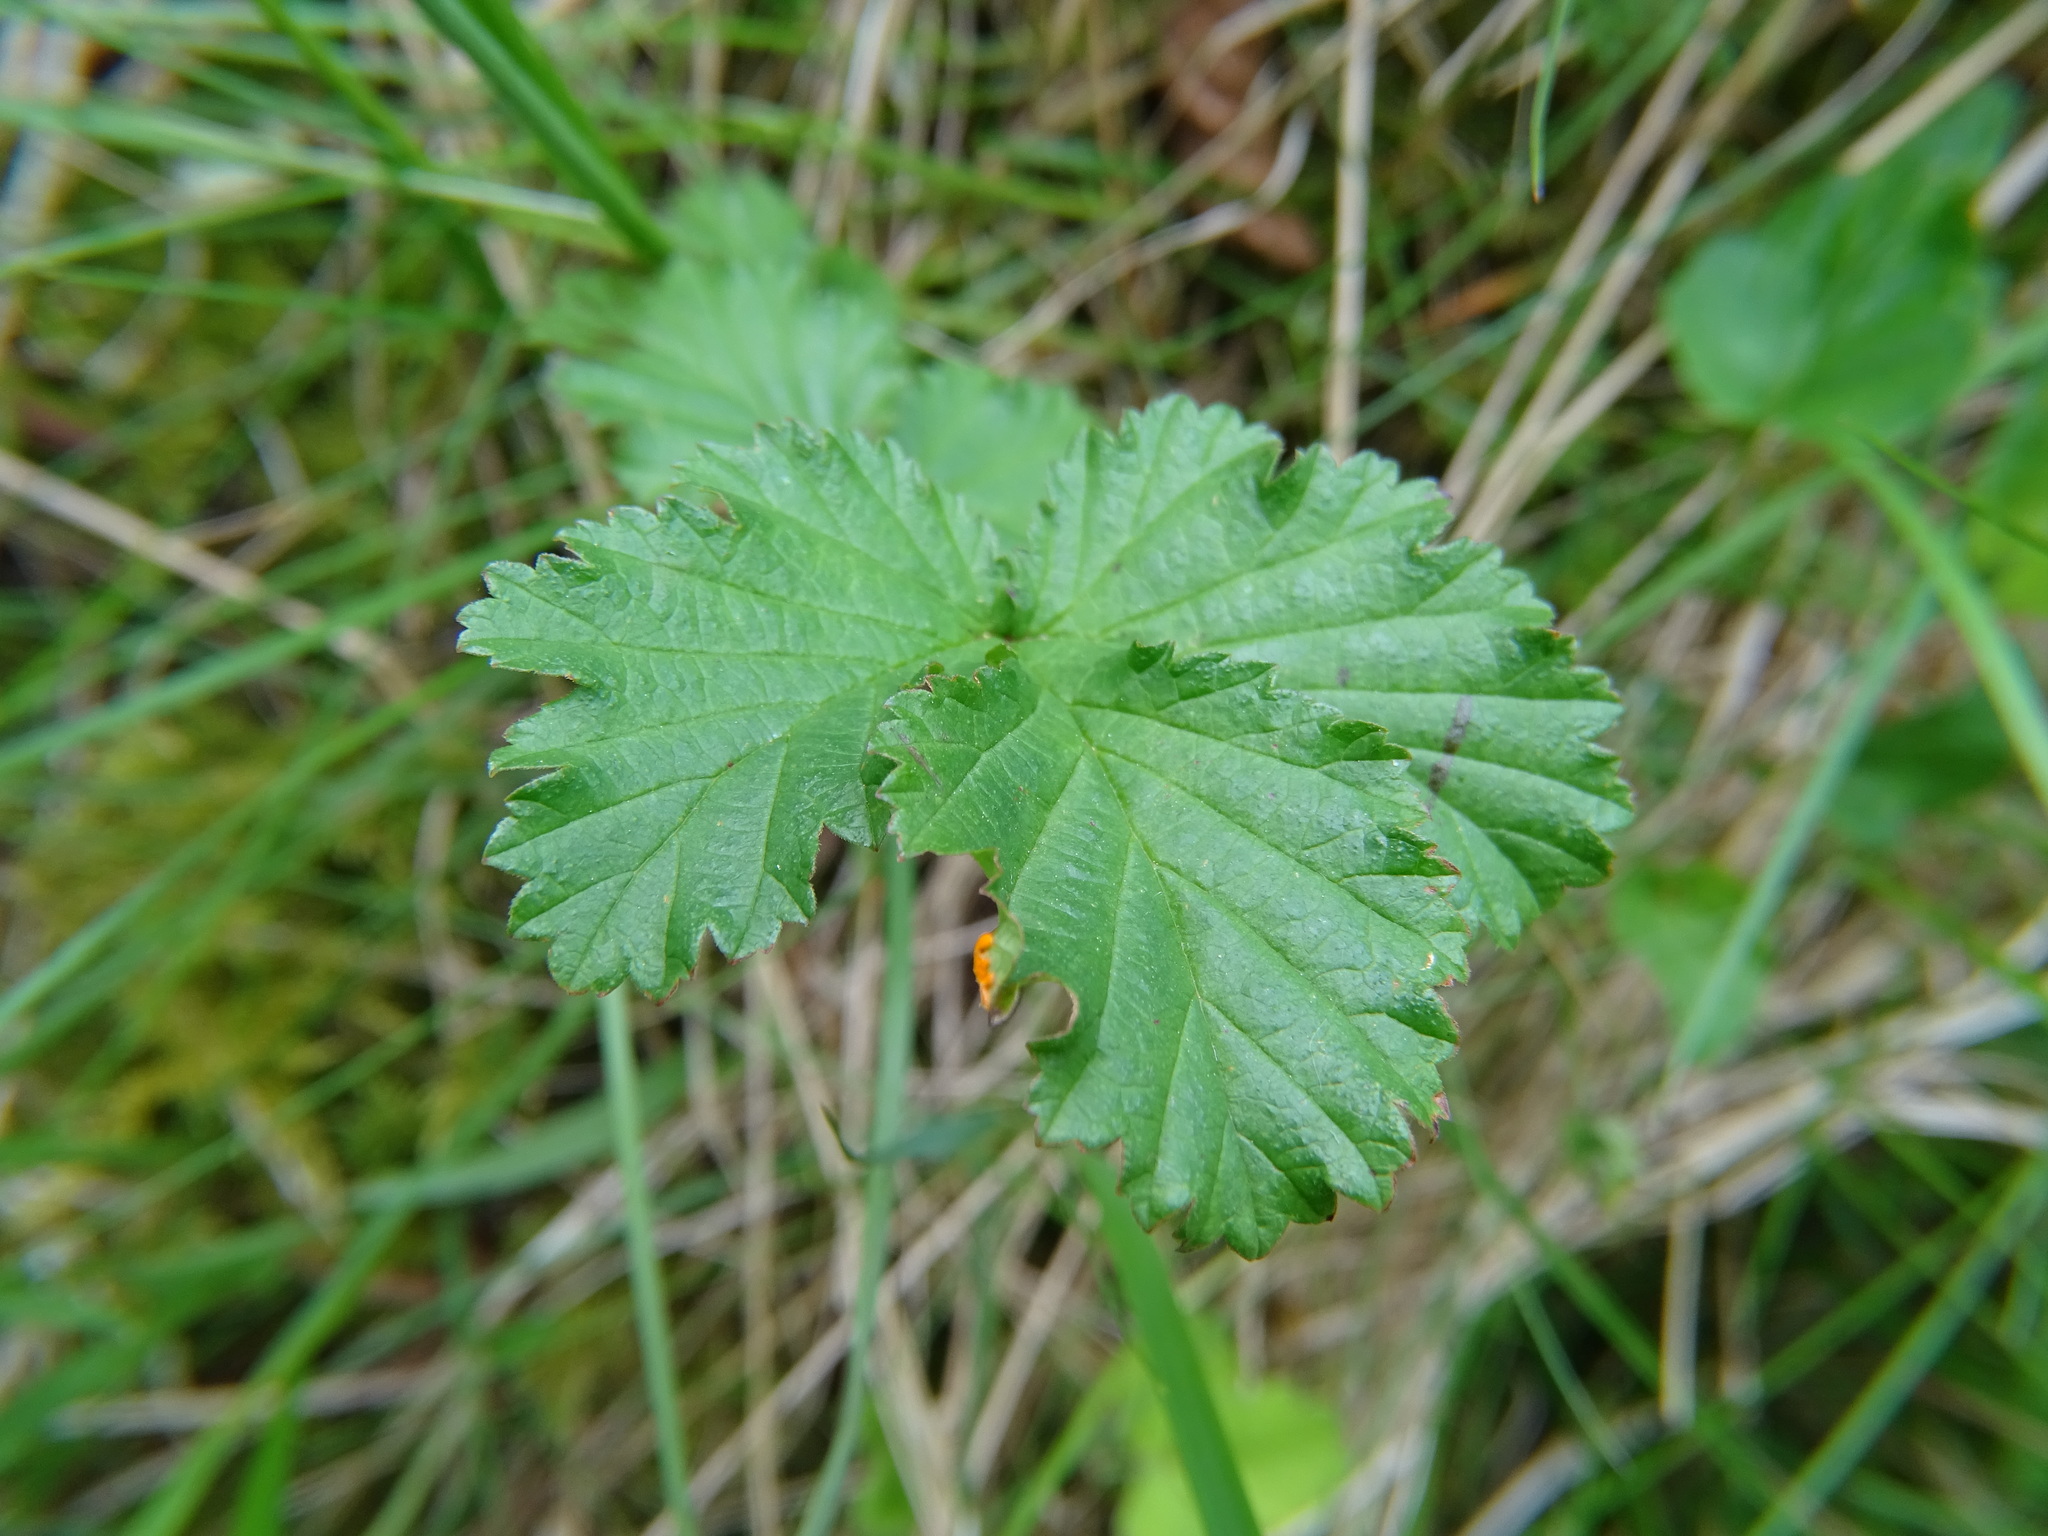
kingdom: Plantae
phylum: Tracheophyta
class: Magnoliopsida
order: Rosales
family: Rosaceae
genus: Rubus
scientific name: Rubus chamaemorus
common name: Cloudberry
